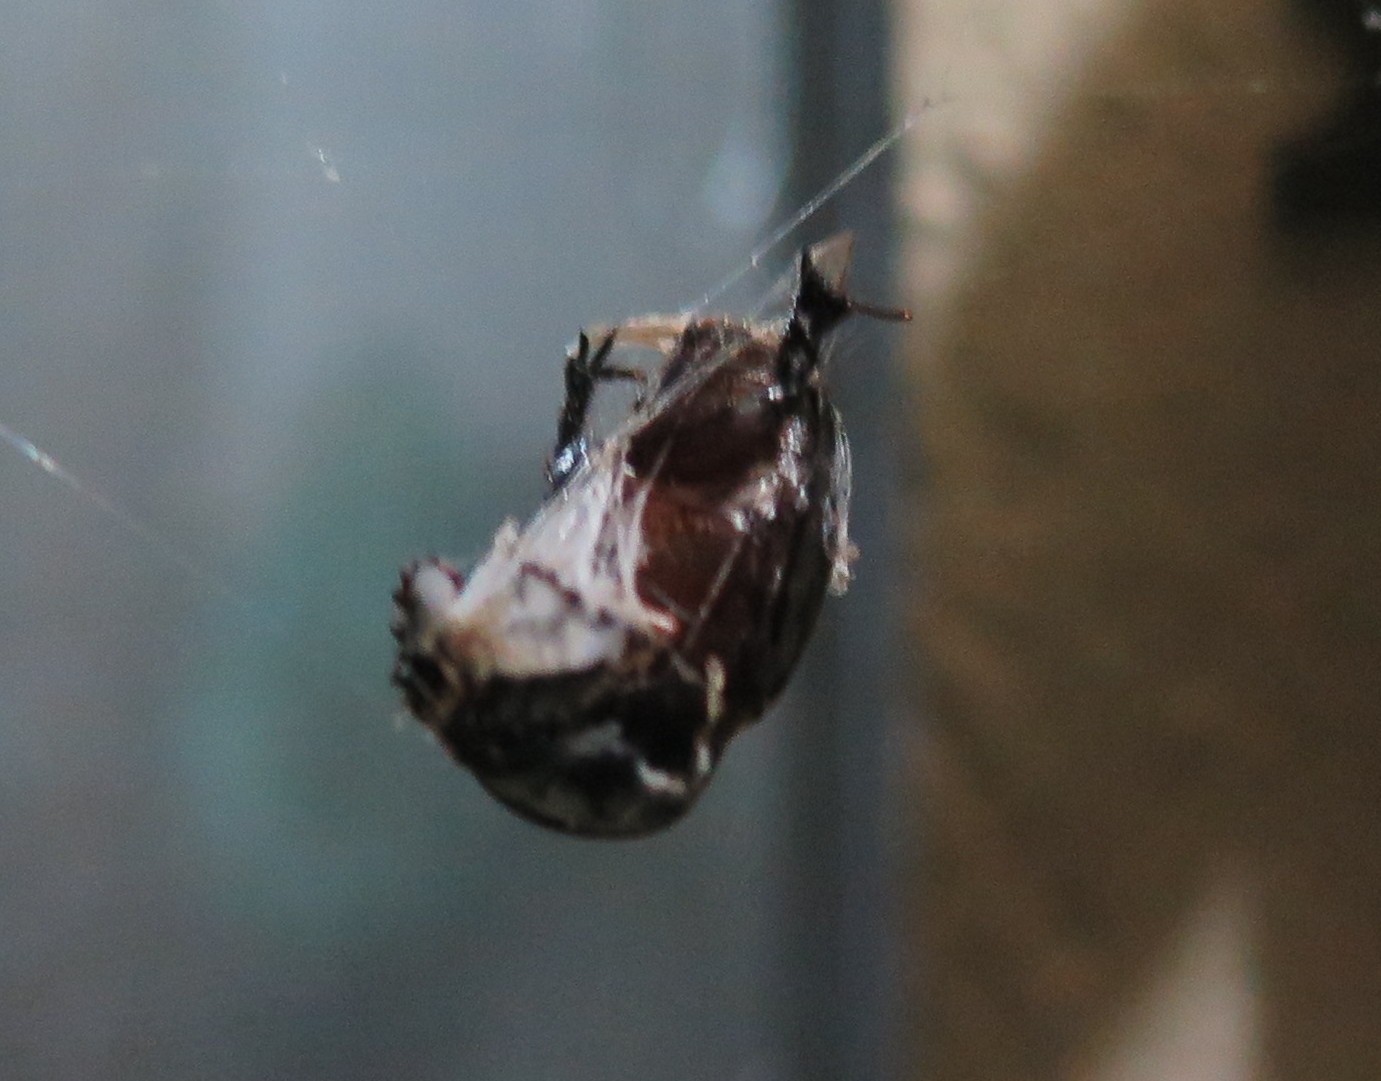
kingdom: Animalia
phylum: Arthropoda
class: Arachnida
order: Araneae
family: Araneidae
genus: Eriophora
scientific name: Eriophora edax
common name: Orb weavers
